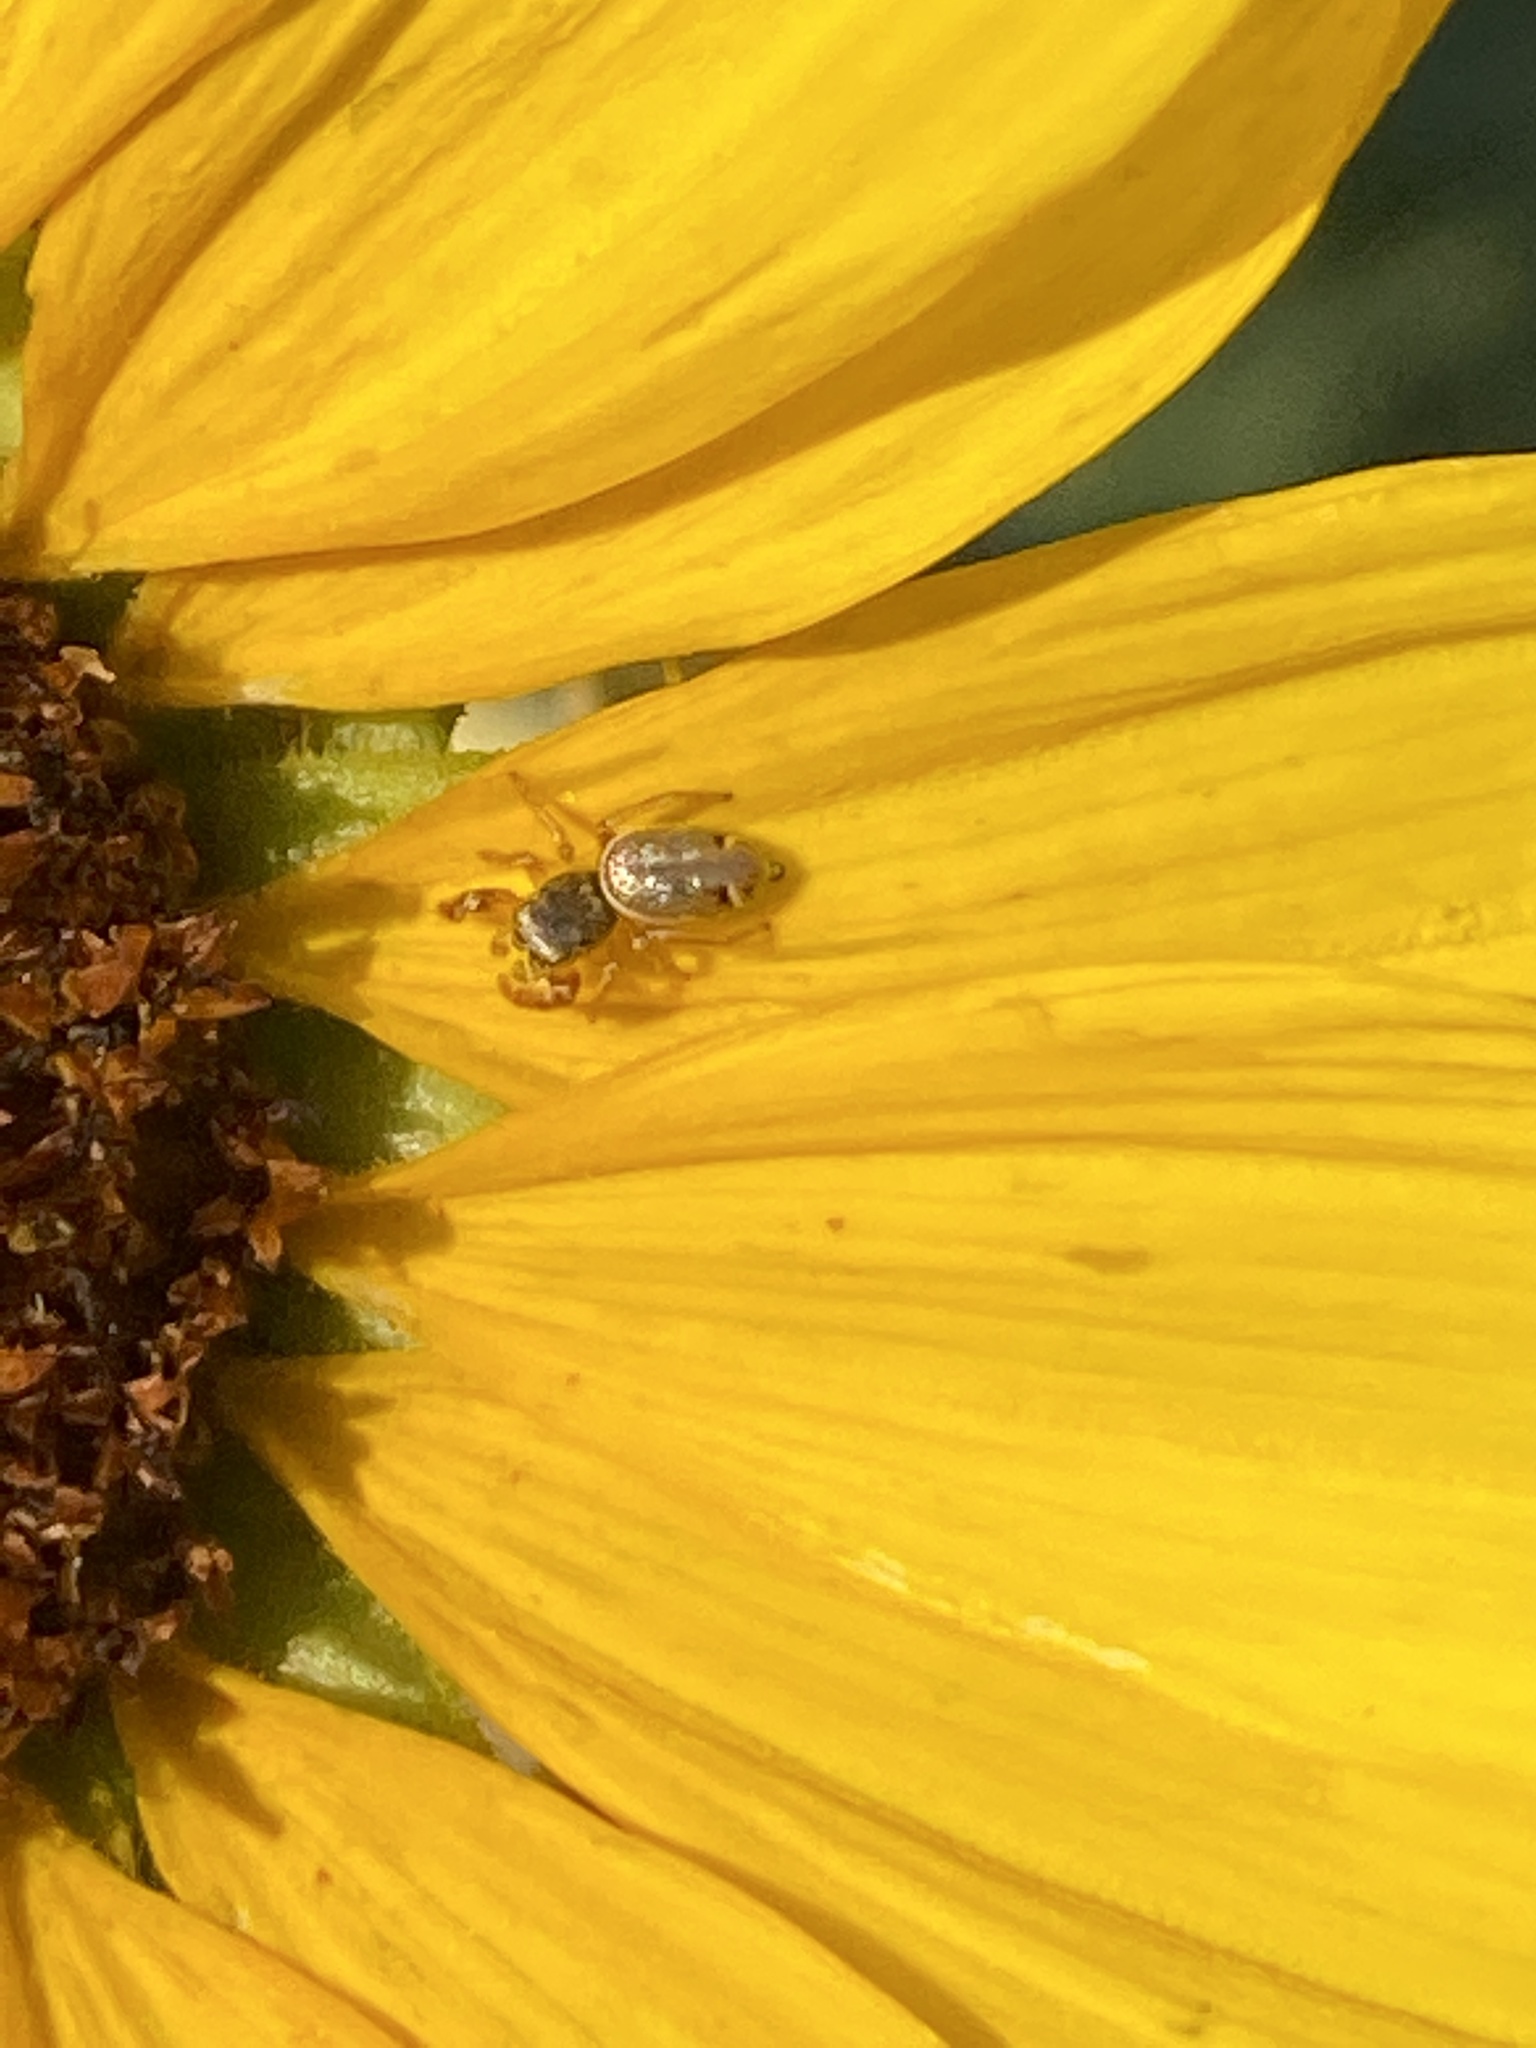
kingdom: Animalia
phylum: Arthropoda
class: Arachnida
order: Araneae
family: Salticidae
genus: Sassacus
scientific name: Sassacus vitis
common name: Jumping spiders
